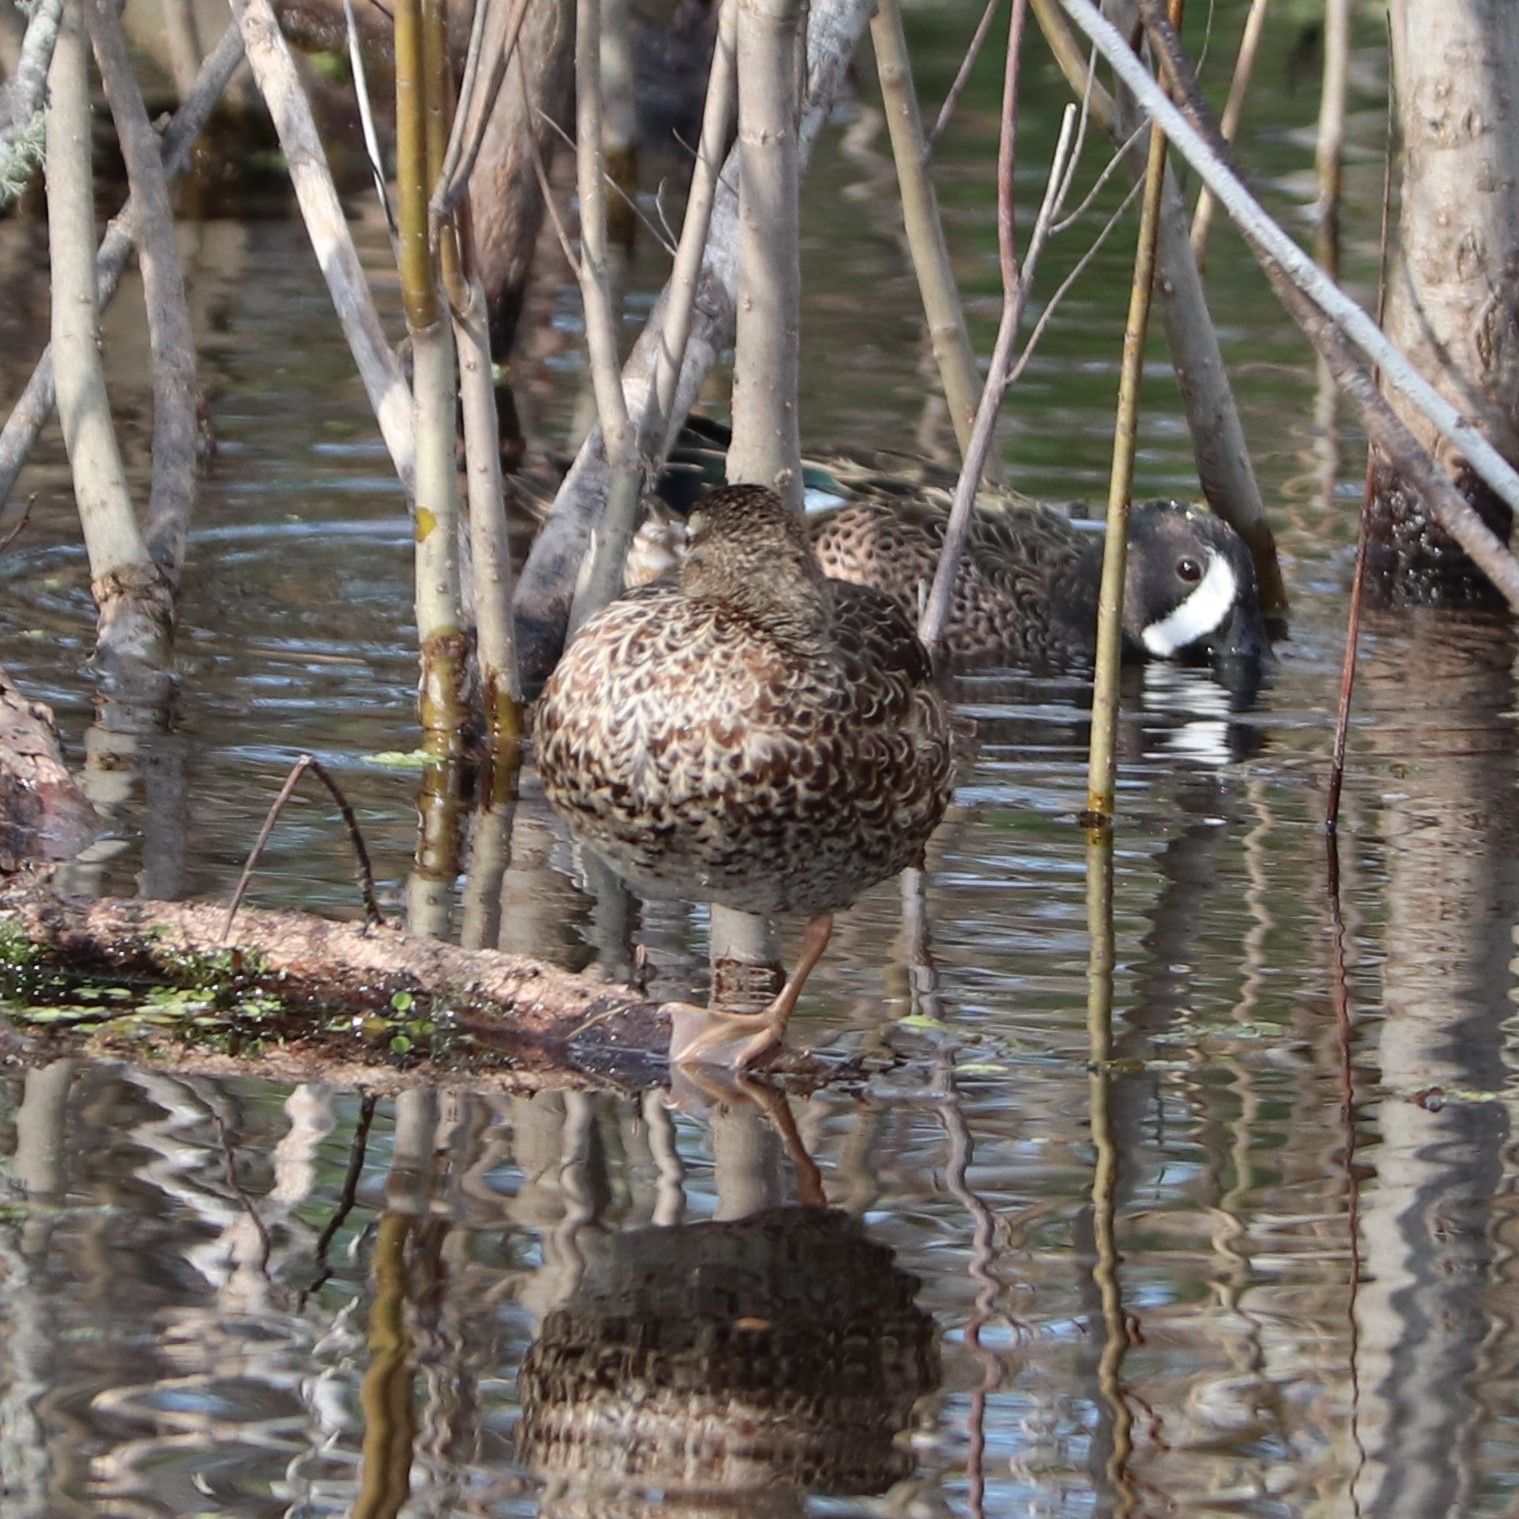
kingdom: Animalia
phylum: Chordata
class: Aves
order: Anseriformes
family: Anatidae
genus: Spatula
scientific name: Spatula discors
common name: Blue-winged teal
